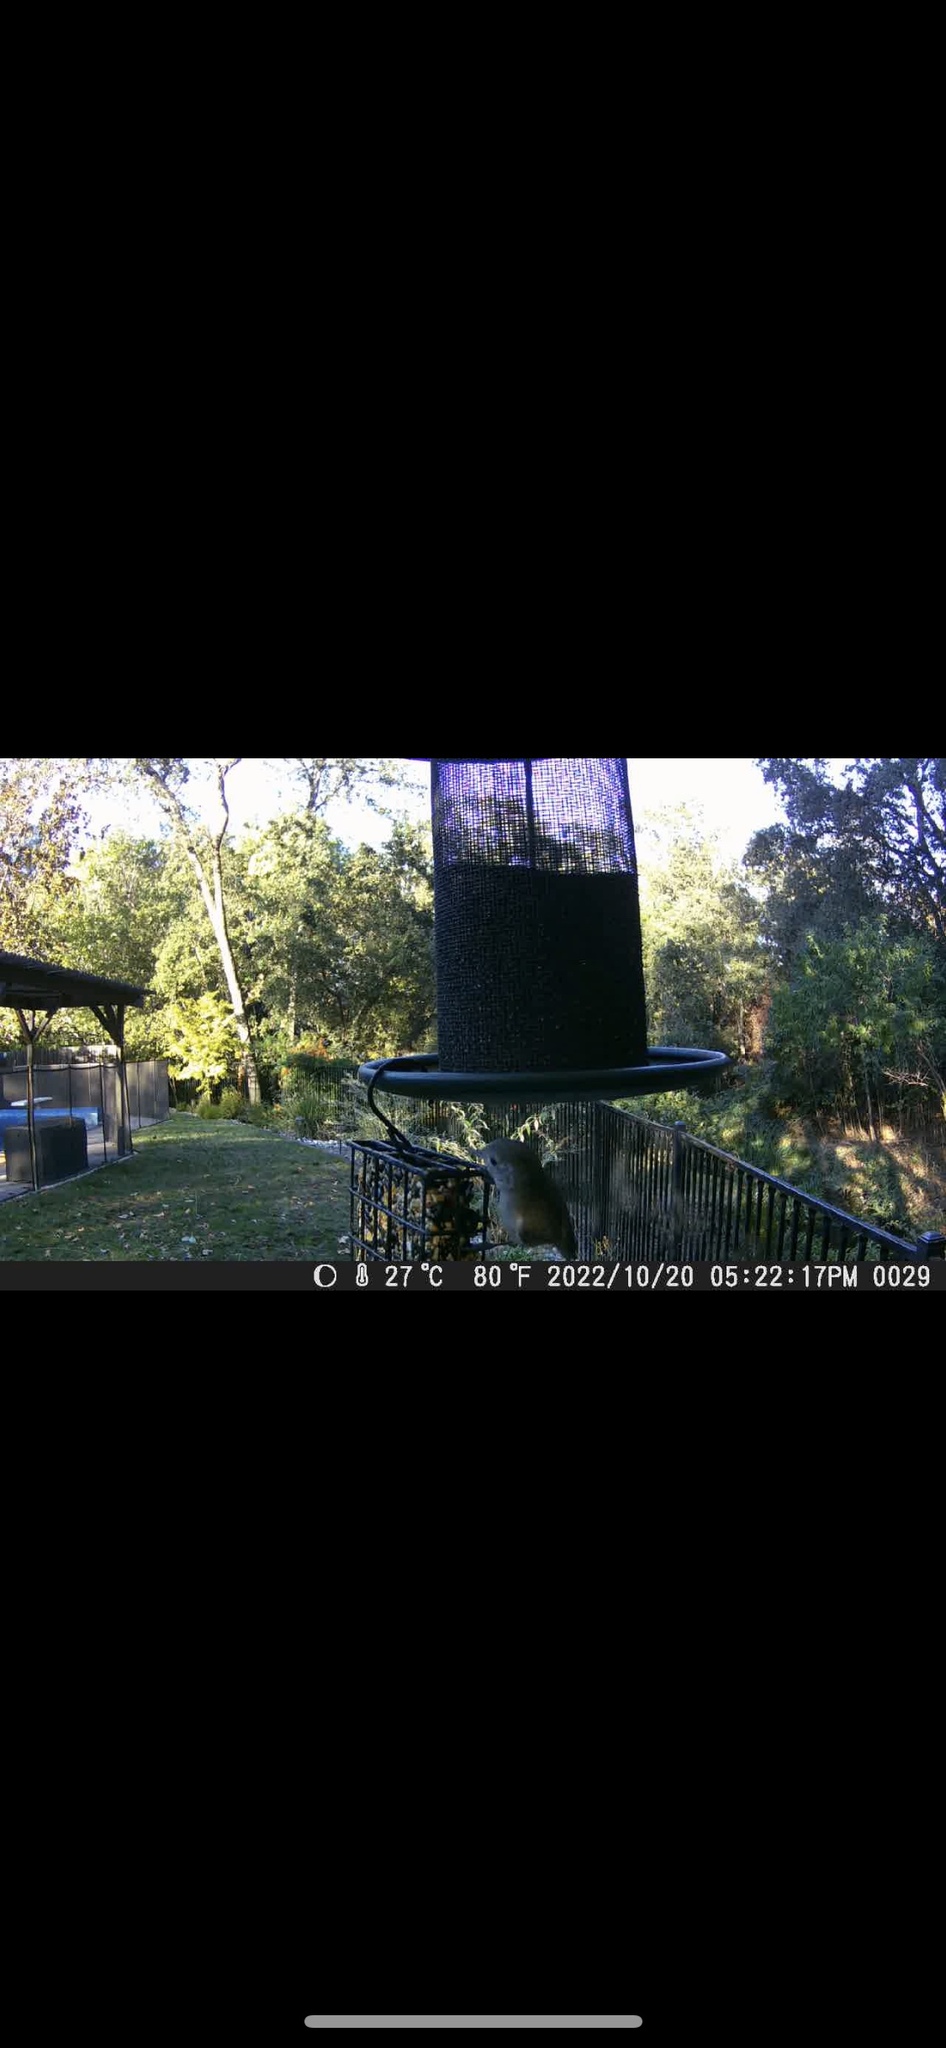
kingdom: Animalia
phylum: Chordata
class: Aves
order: Passeriformes
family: Paridae
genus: Baeolophus
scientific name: Baeolophus inornatus
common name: Oak titmouse
